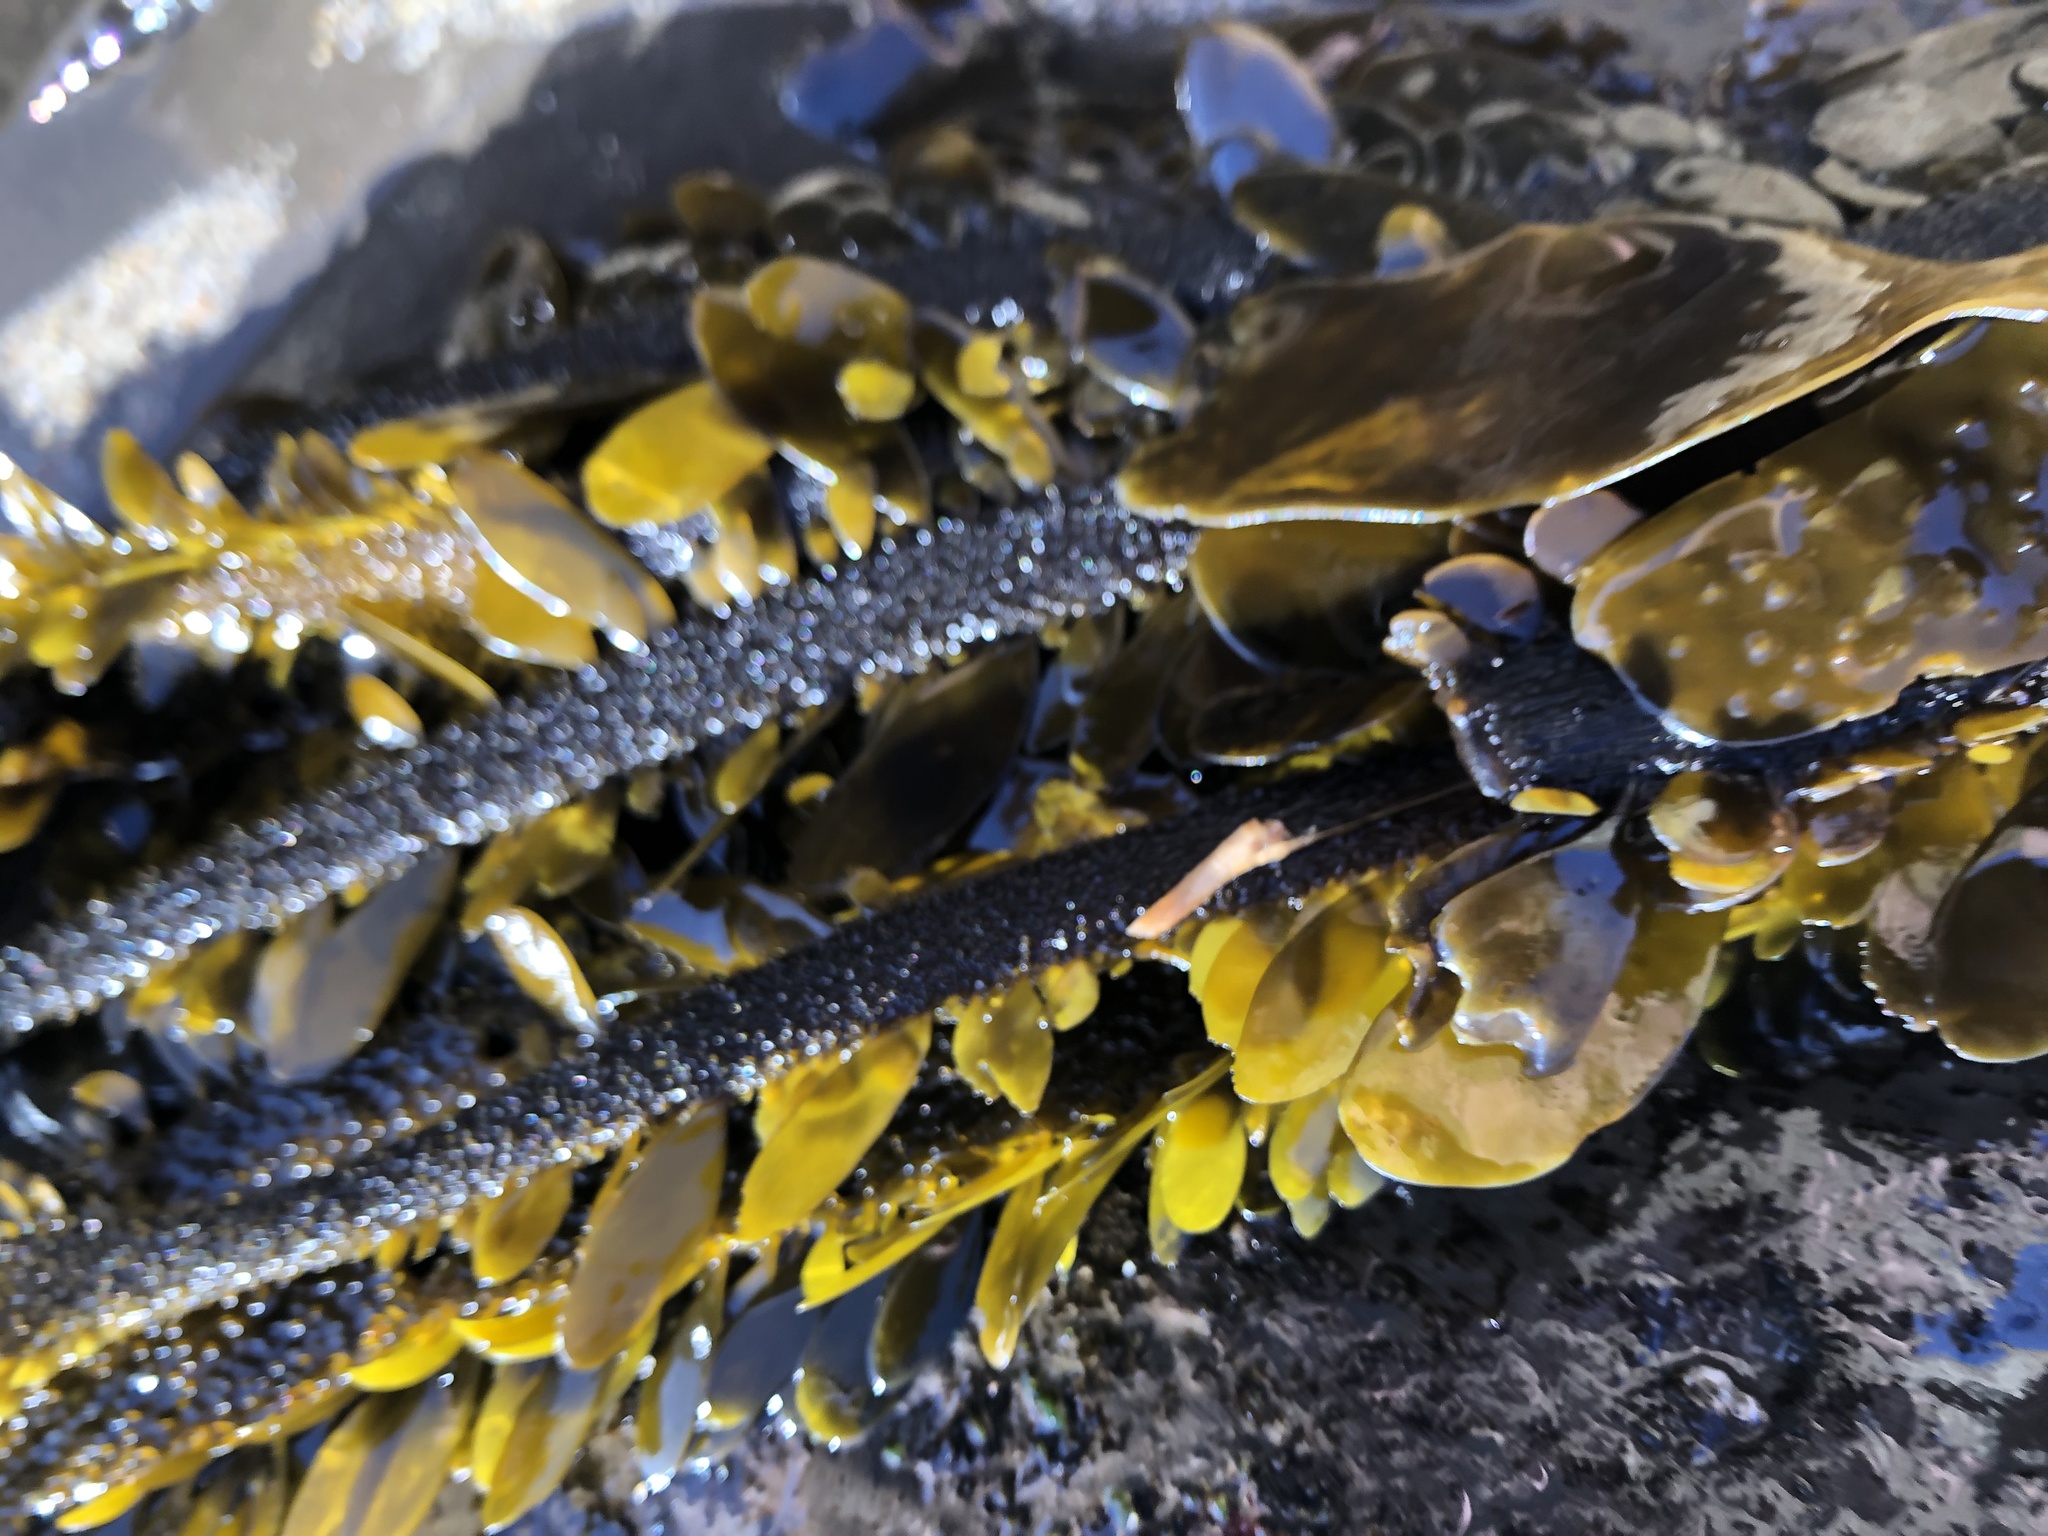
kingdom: Chromista
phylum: Ochrophyta
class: Phaeophyceae
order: Laminariales
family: Lessoniaceae
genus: Egregia
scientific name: Egregia menziesii
